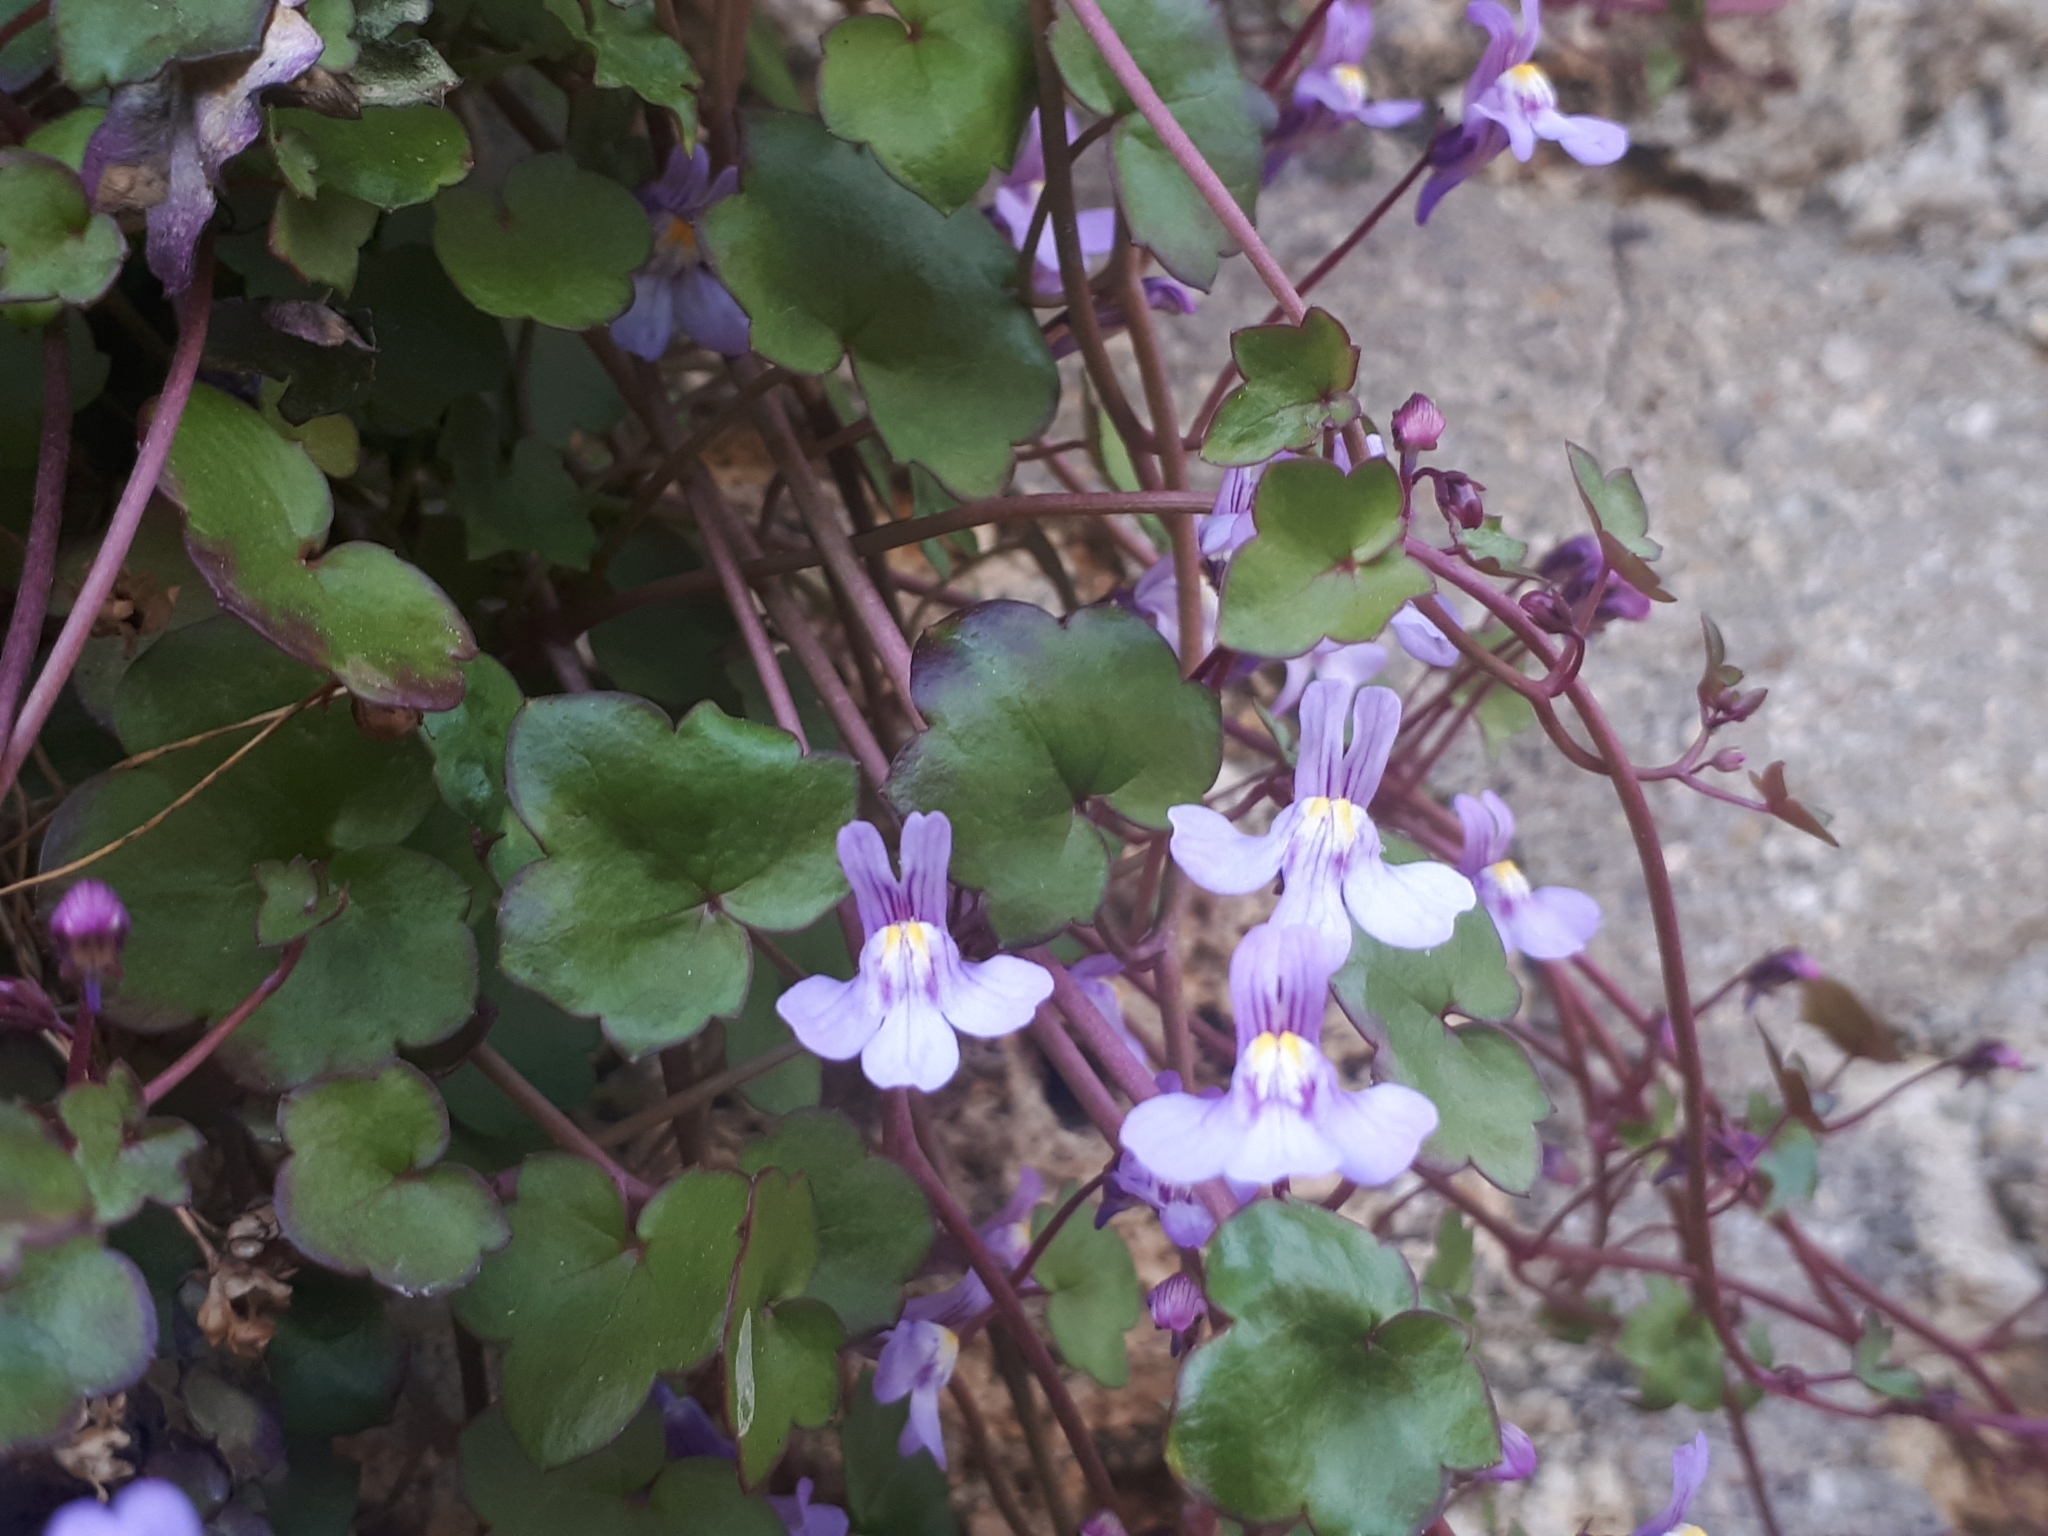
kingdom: Plantae
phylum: Tracheophyta
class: Magnoliopsida
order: Lamiales
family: Plantaginaceae
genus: Cymbalaria
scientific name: Cymbalaria muralis
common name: Ivy-leaved toadflax
